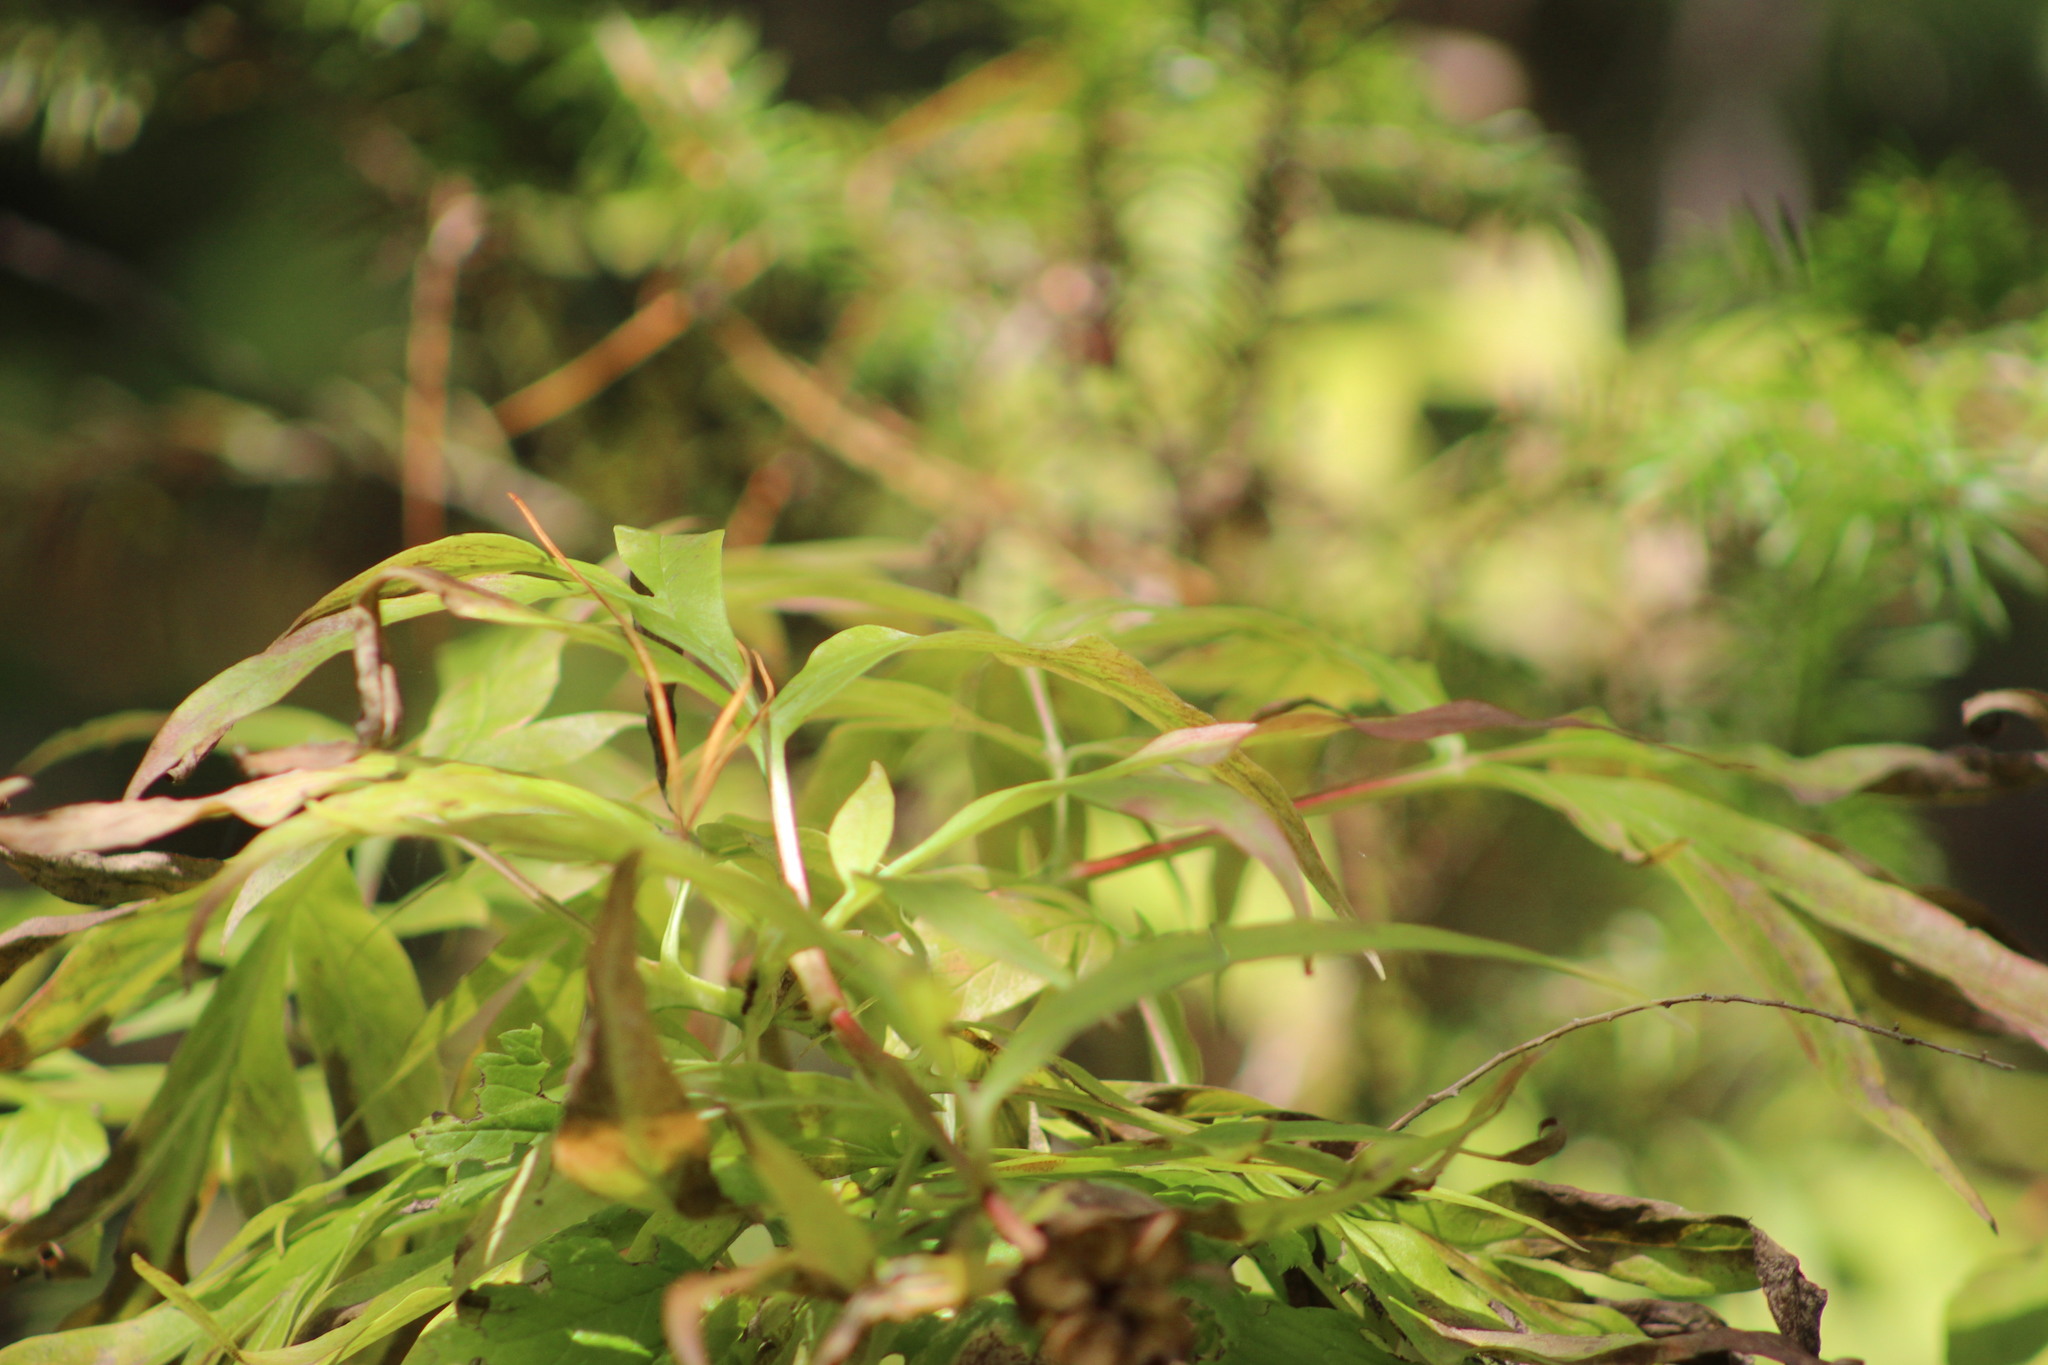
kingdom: Plantae
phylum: Tracheophyta
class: Magnoliopsida
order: Saxifragales
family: Paeoniaceae
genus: Paeonia
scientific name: Paeonia anomala
